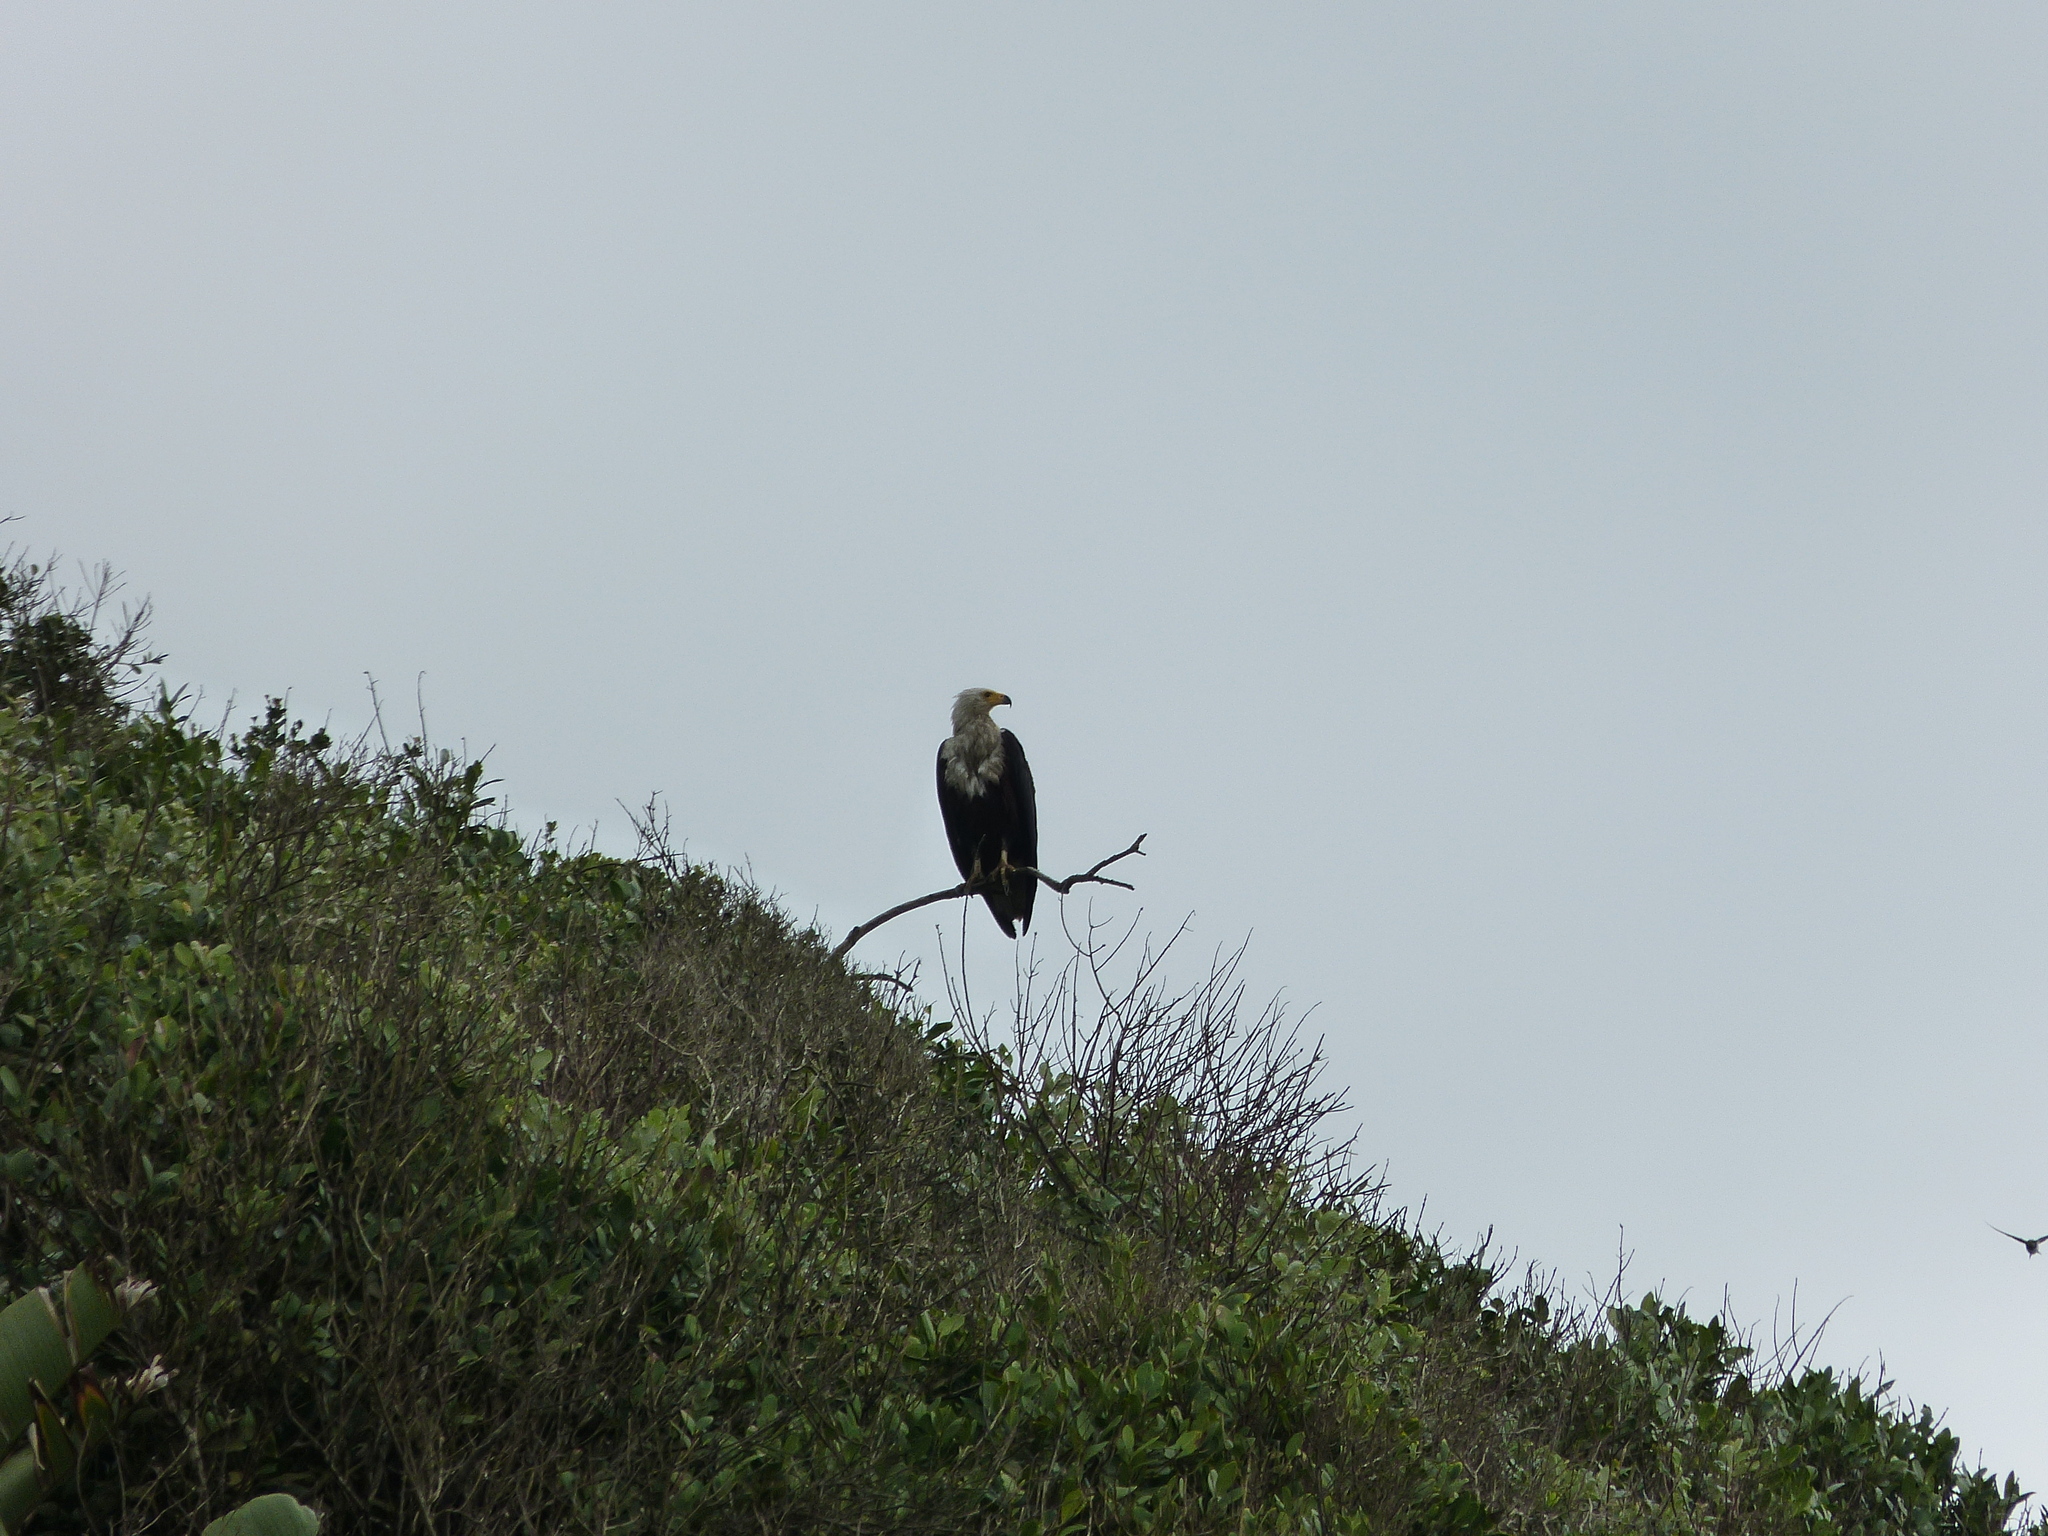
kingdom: Animalia
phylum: Chordata
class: Aves
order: Accipitriformes
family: Accipitridae
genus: Haliaeetus
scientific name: Haliaeetus vocifer
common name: African fish eagle
